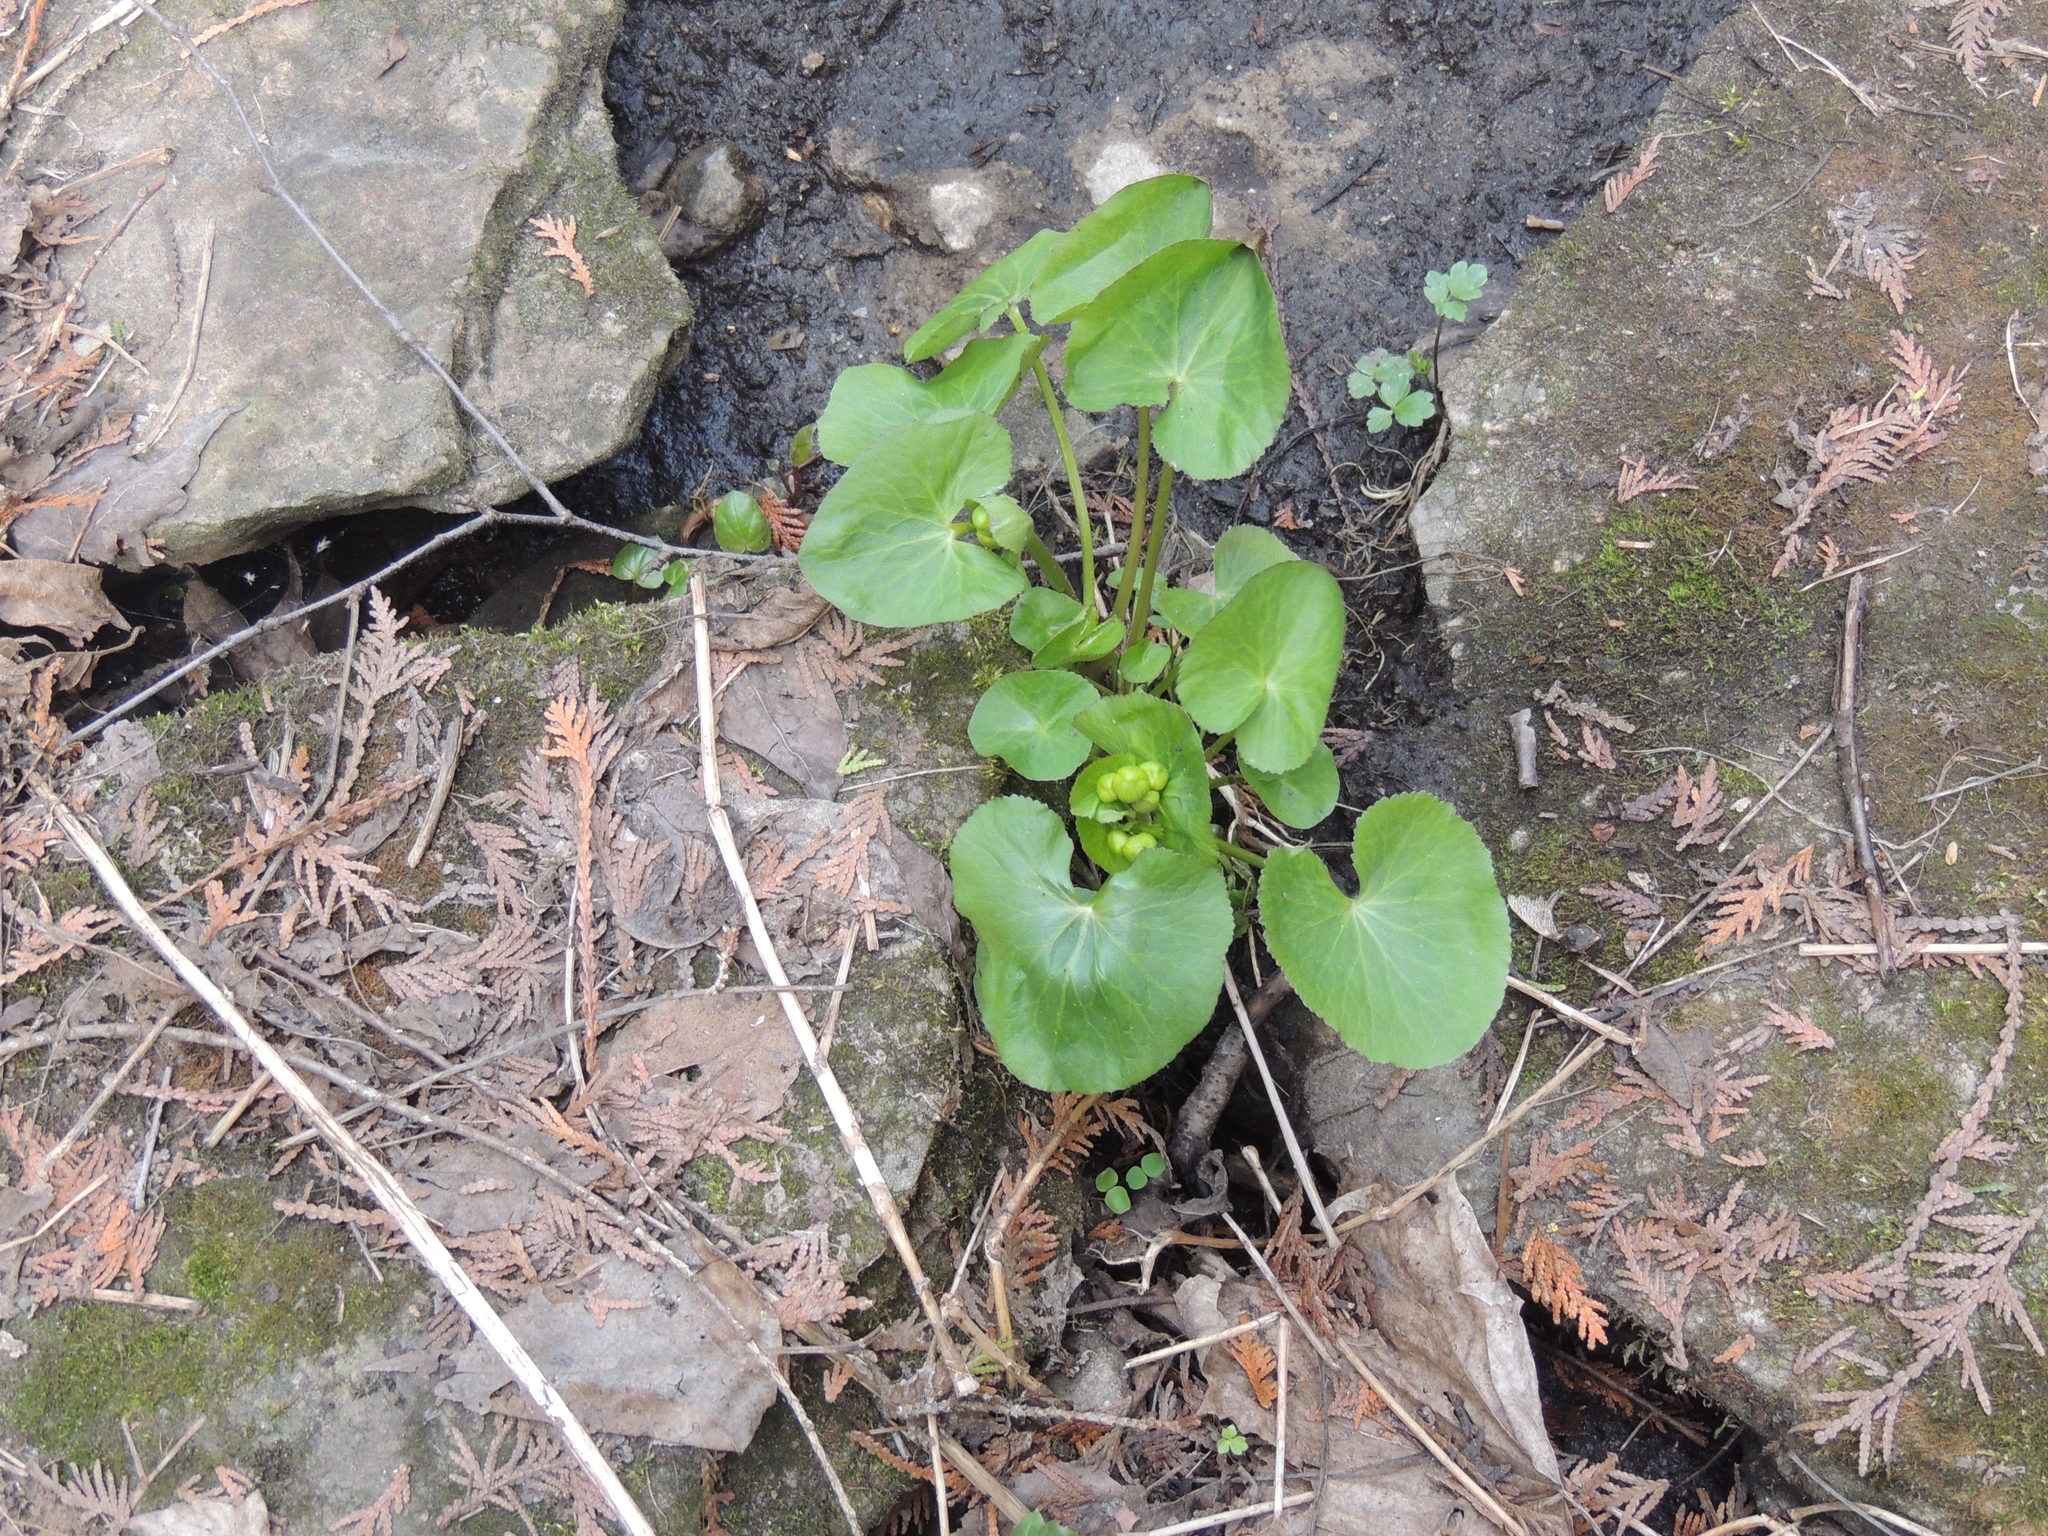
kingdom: Plantae
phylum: Tracheophyta
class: Magnoliopsida
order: Ranunculales
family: Ranunculaceae
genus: Caltha
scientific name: Caltha palustris
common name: Marsh marigold
